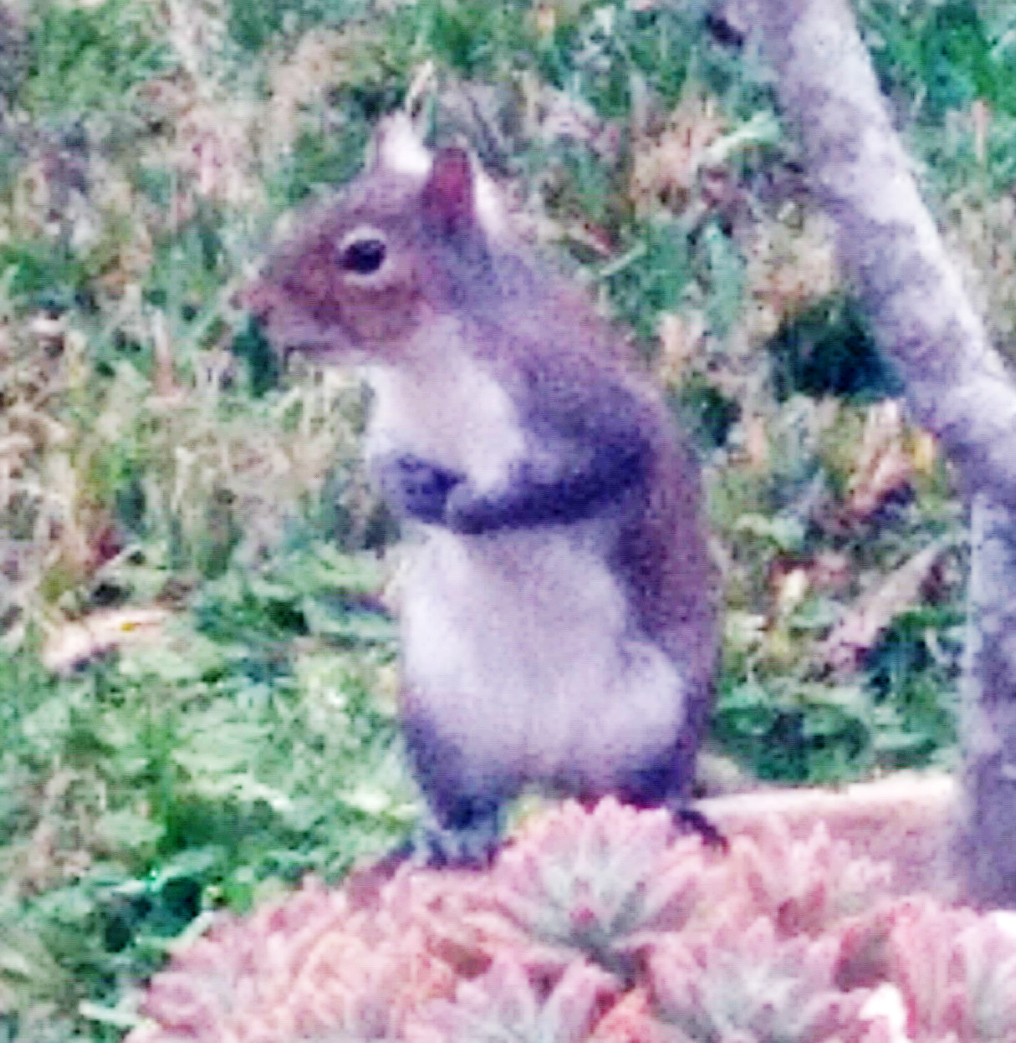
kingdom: Animalia
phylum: Chordata
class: Mammalia
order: Rodentia
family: Sciuridae
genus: Sciurus
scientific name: Sciurus carolinensis
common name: Eastern gray squirrel
